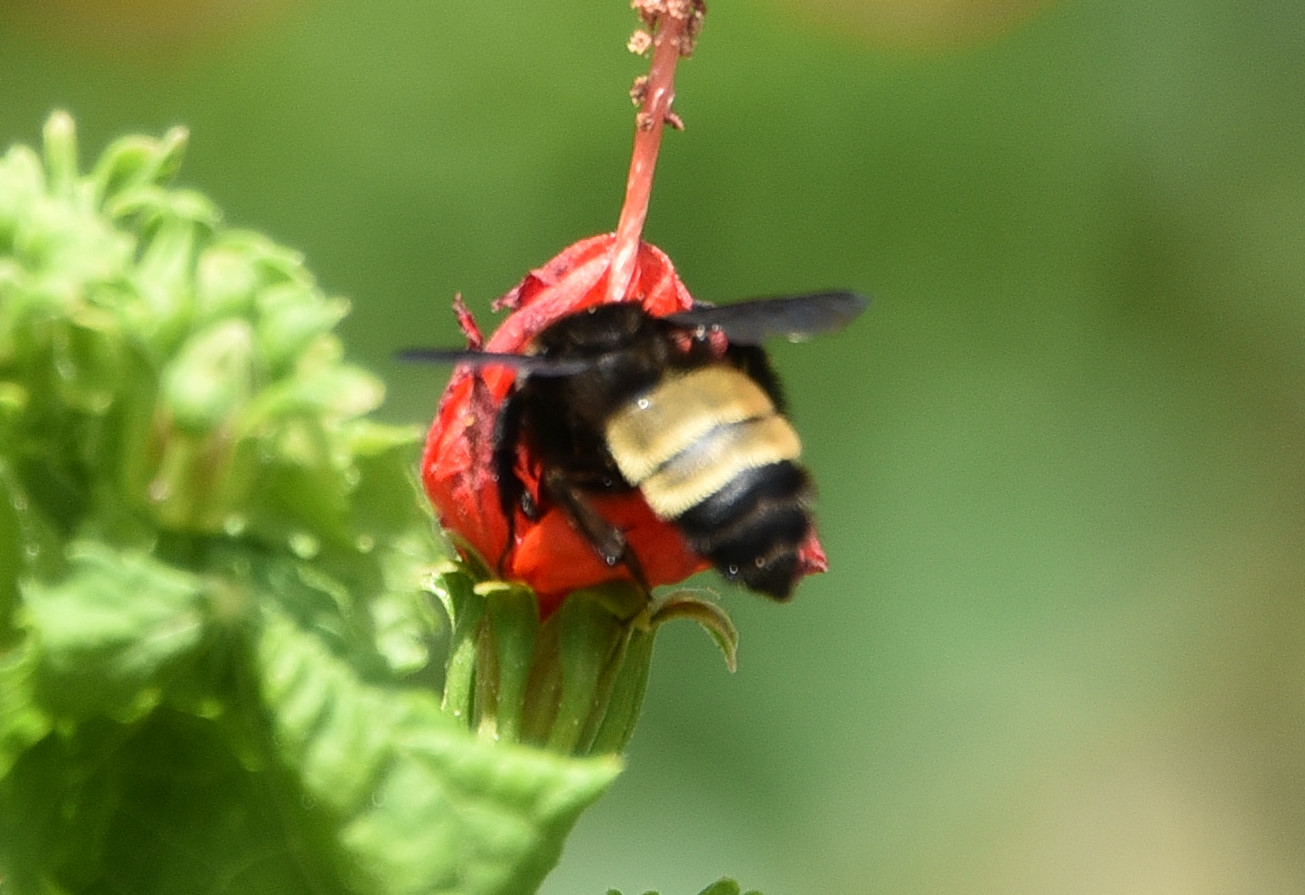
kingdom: Animalia
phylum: Arthropoda
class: Insecta
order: Hymenoptera
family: Apidae
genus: Bombus
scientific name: Bombus pensylvanicus
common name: Bumble bee
